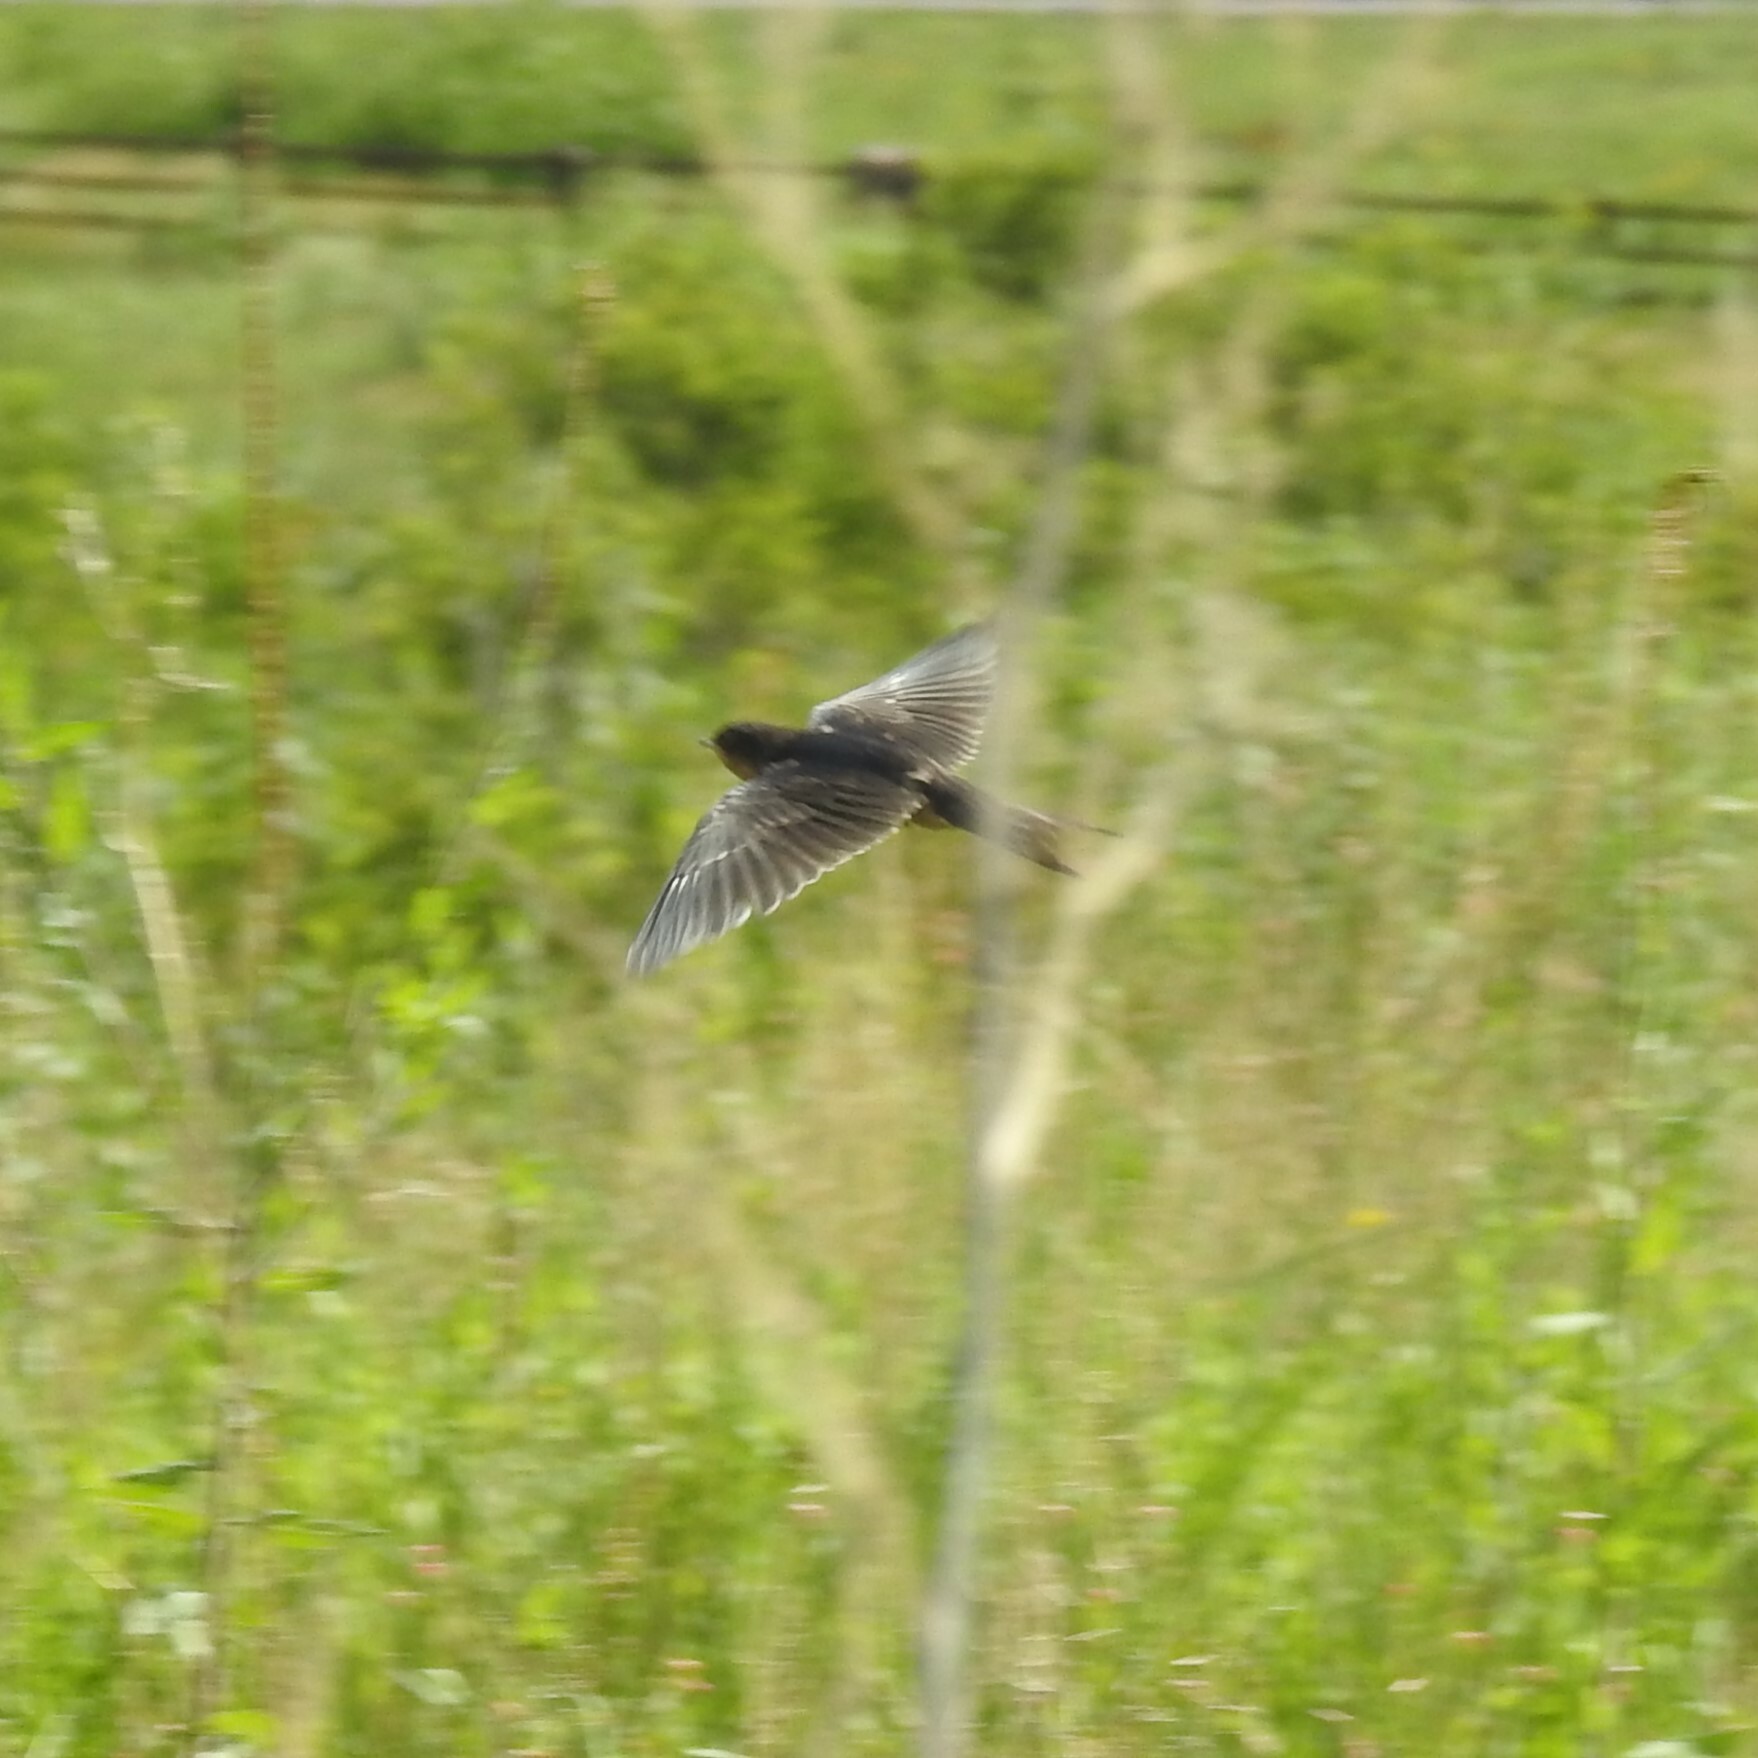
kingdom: Animalia
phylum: Chordata
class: Aves
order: Passeriformes
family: Hirundinidae
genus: Hirundo
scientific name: Hirundo rustica
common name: Barn swallow
